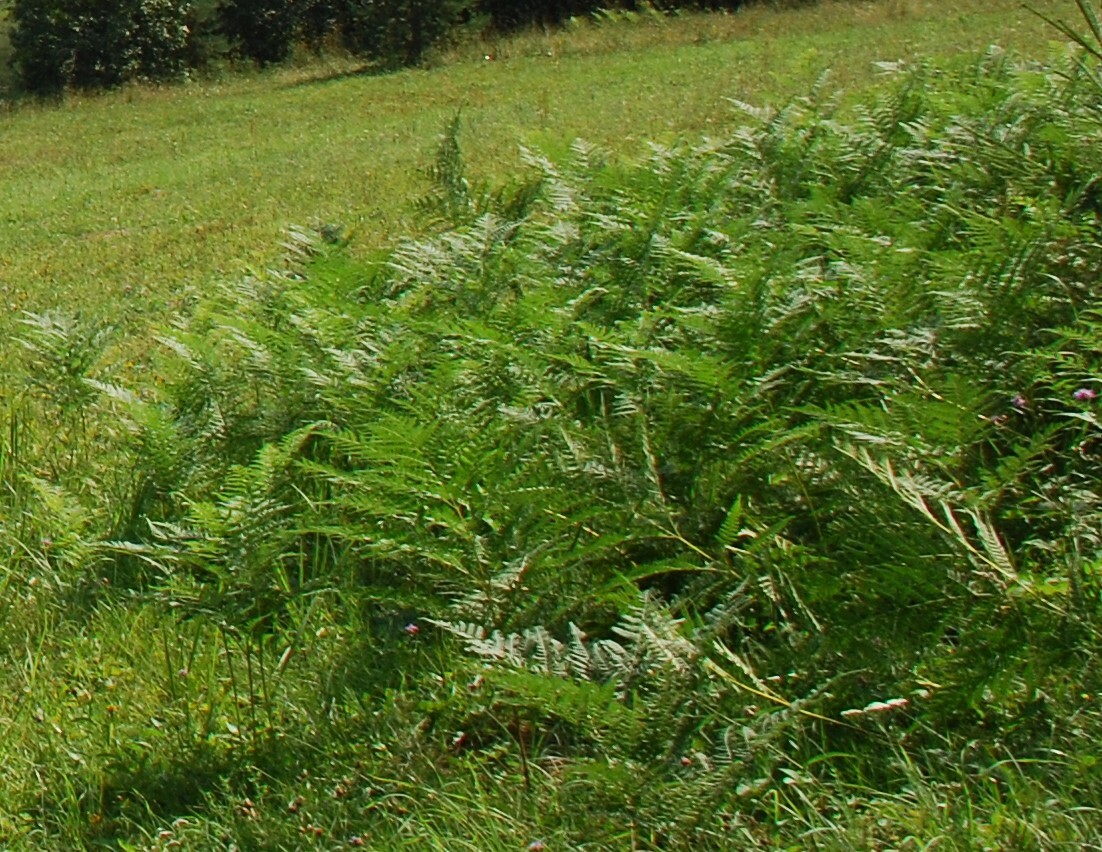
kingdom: Plantae
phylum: Tracheophyta
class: Polypodiopsida
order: Polypodiales
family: Dennstaedtiaceae
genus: Pteridium
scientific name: Pteridium aquilinum
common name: Bracken
